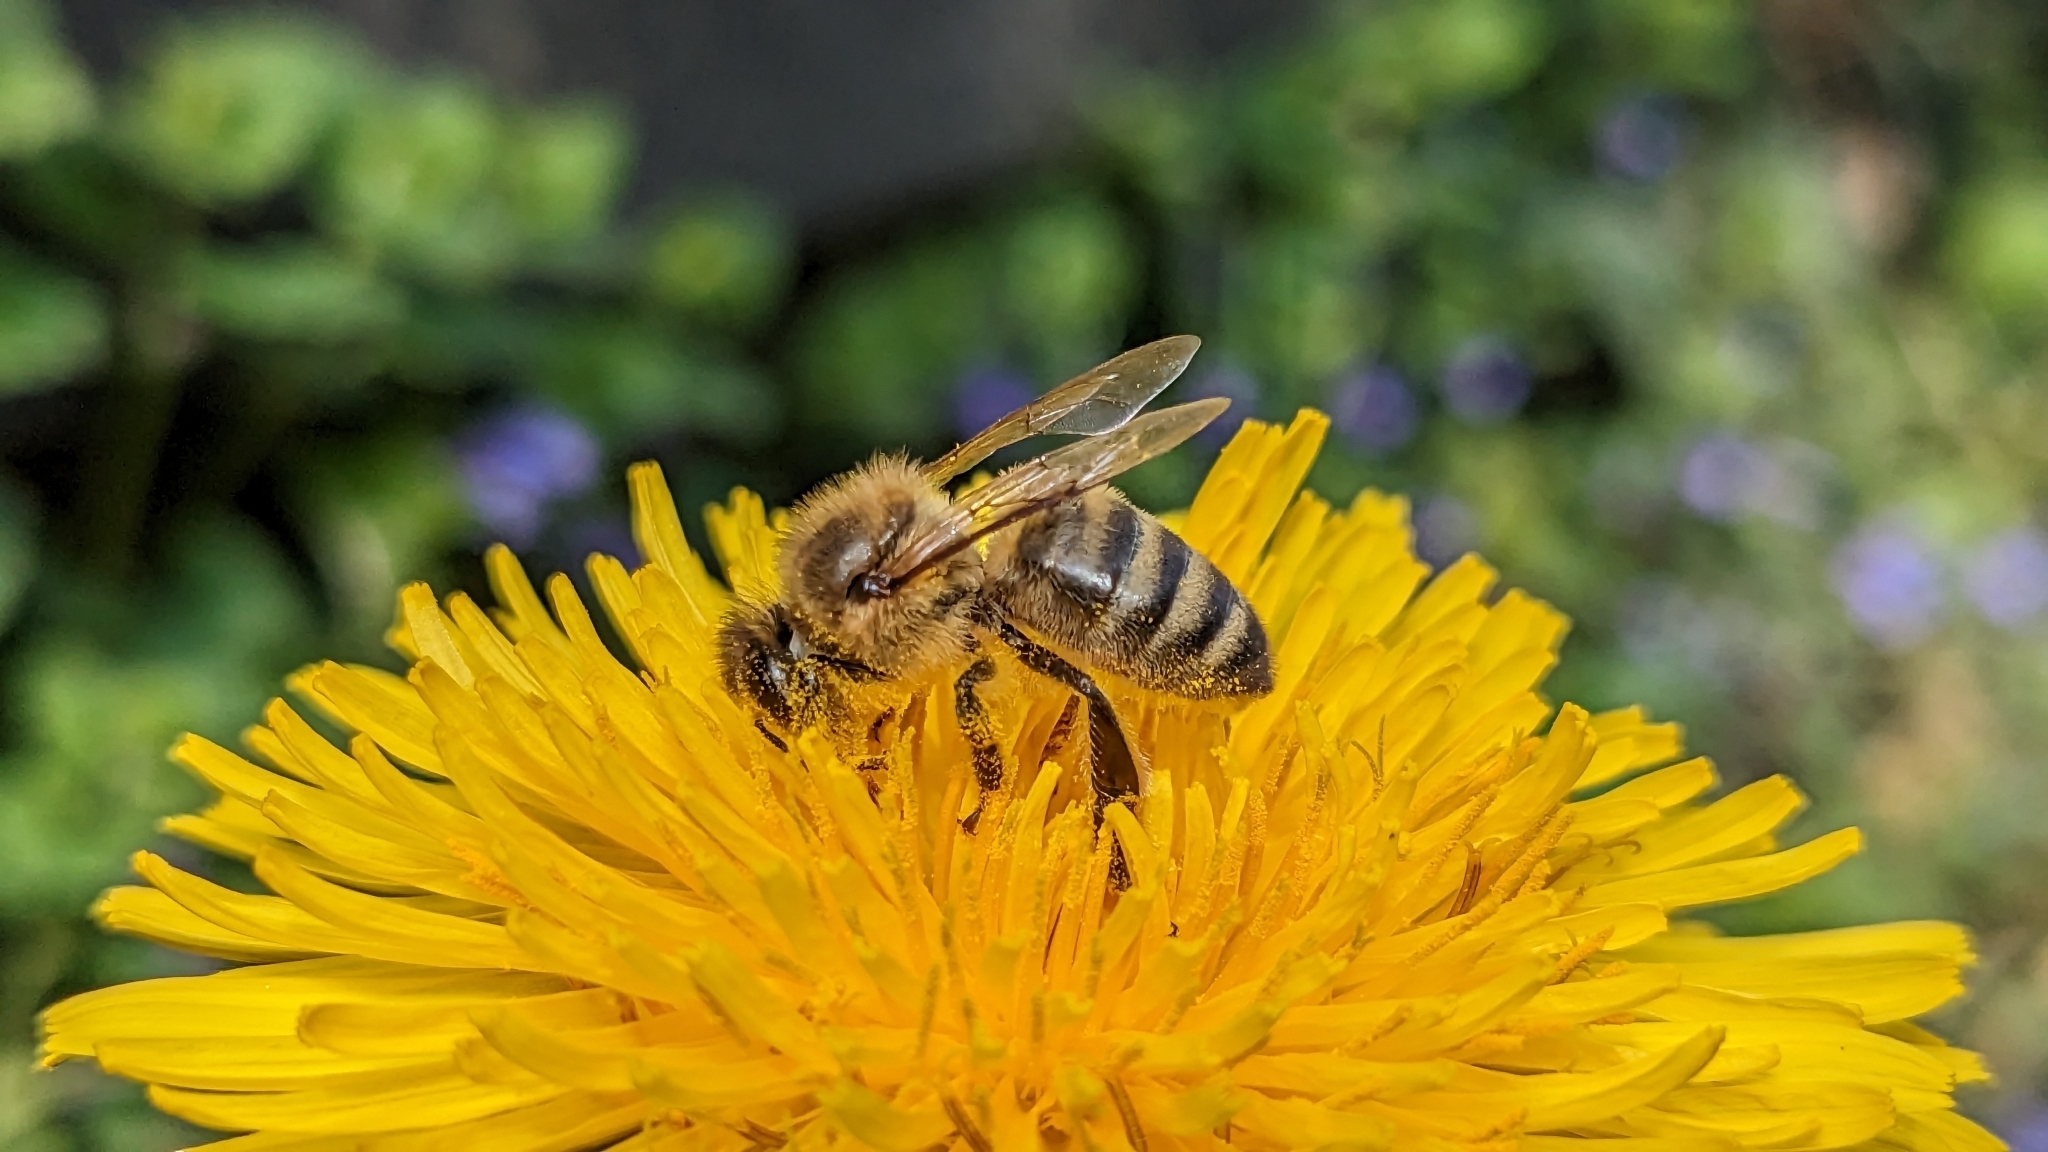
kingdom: Animalia
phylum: Arthropoda
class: Insecta
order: Hymenoptera
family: Apidae
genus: Apis
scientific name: Apis mellifera
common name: Honey bee
